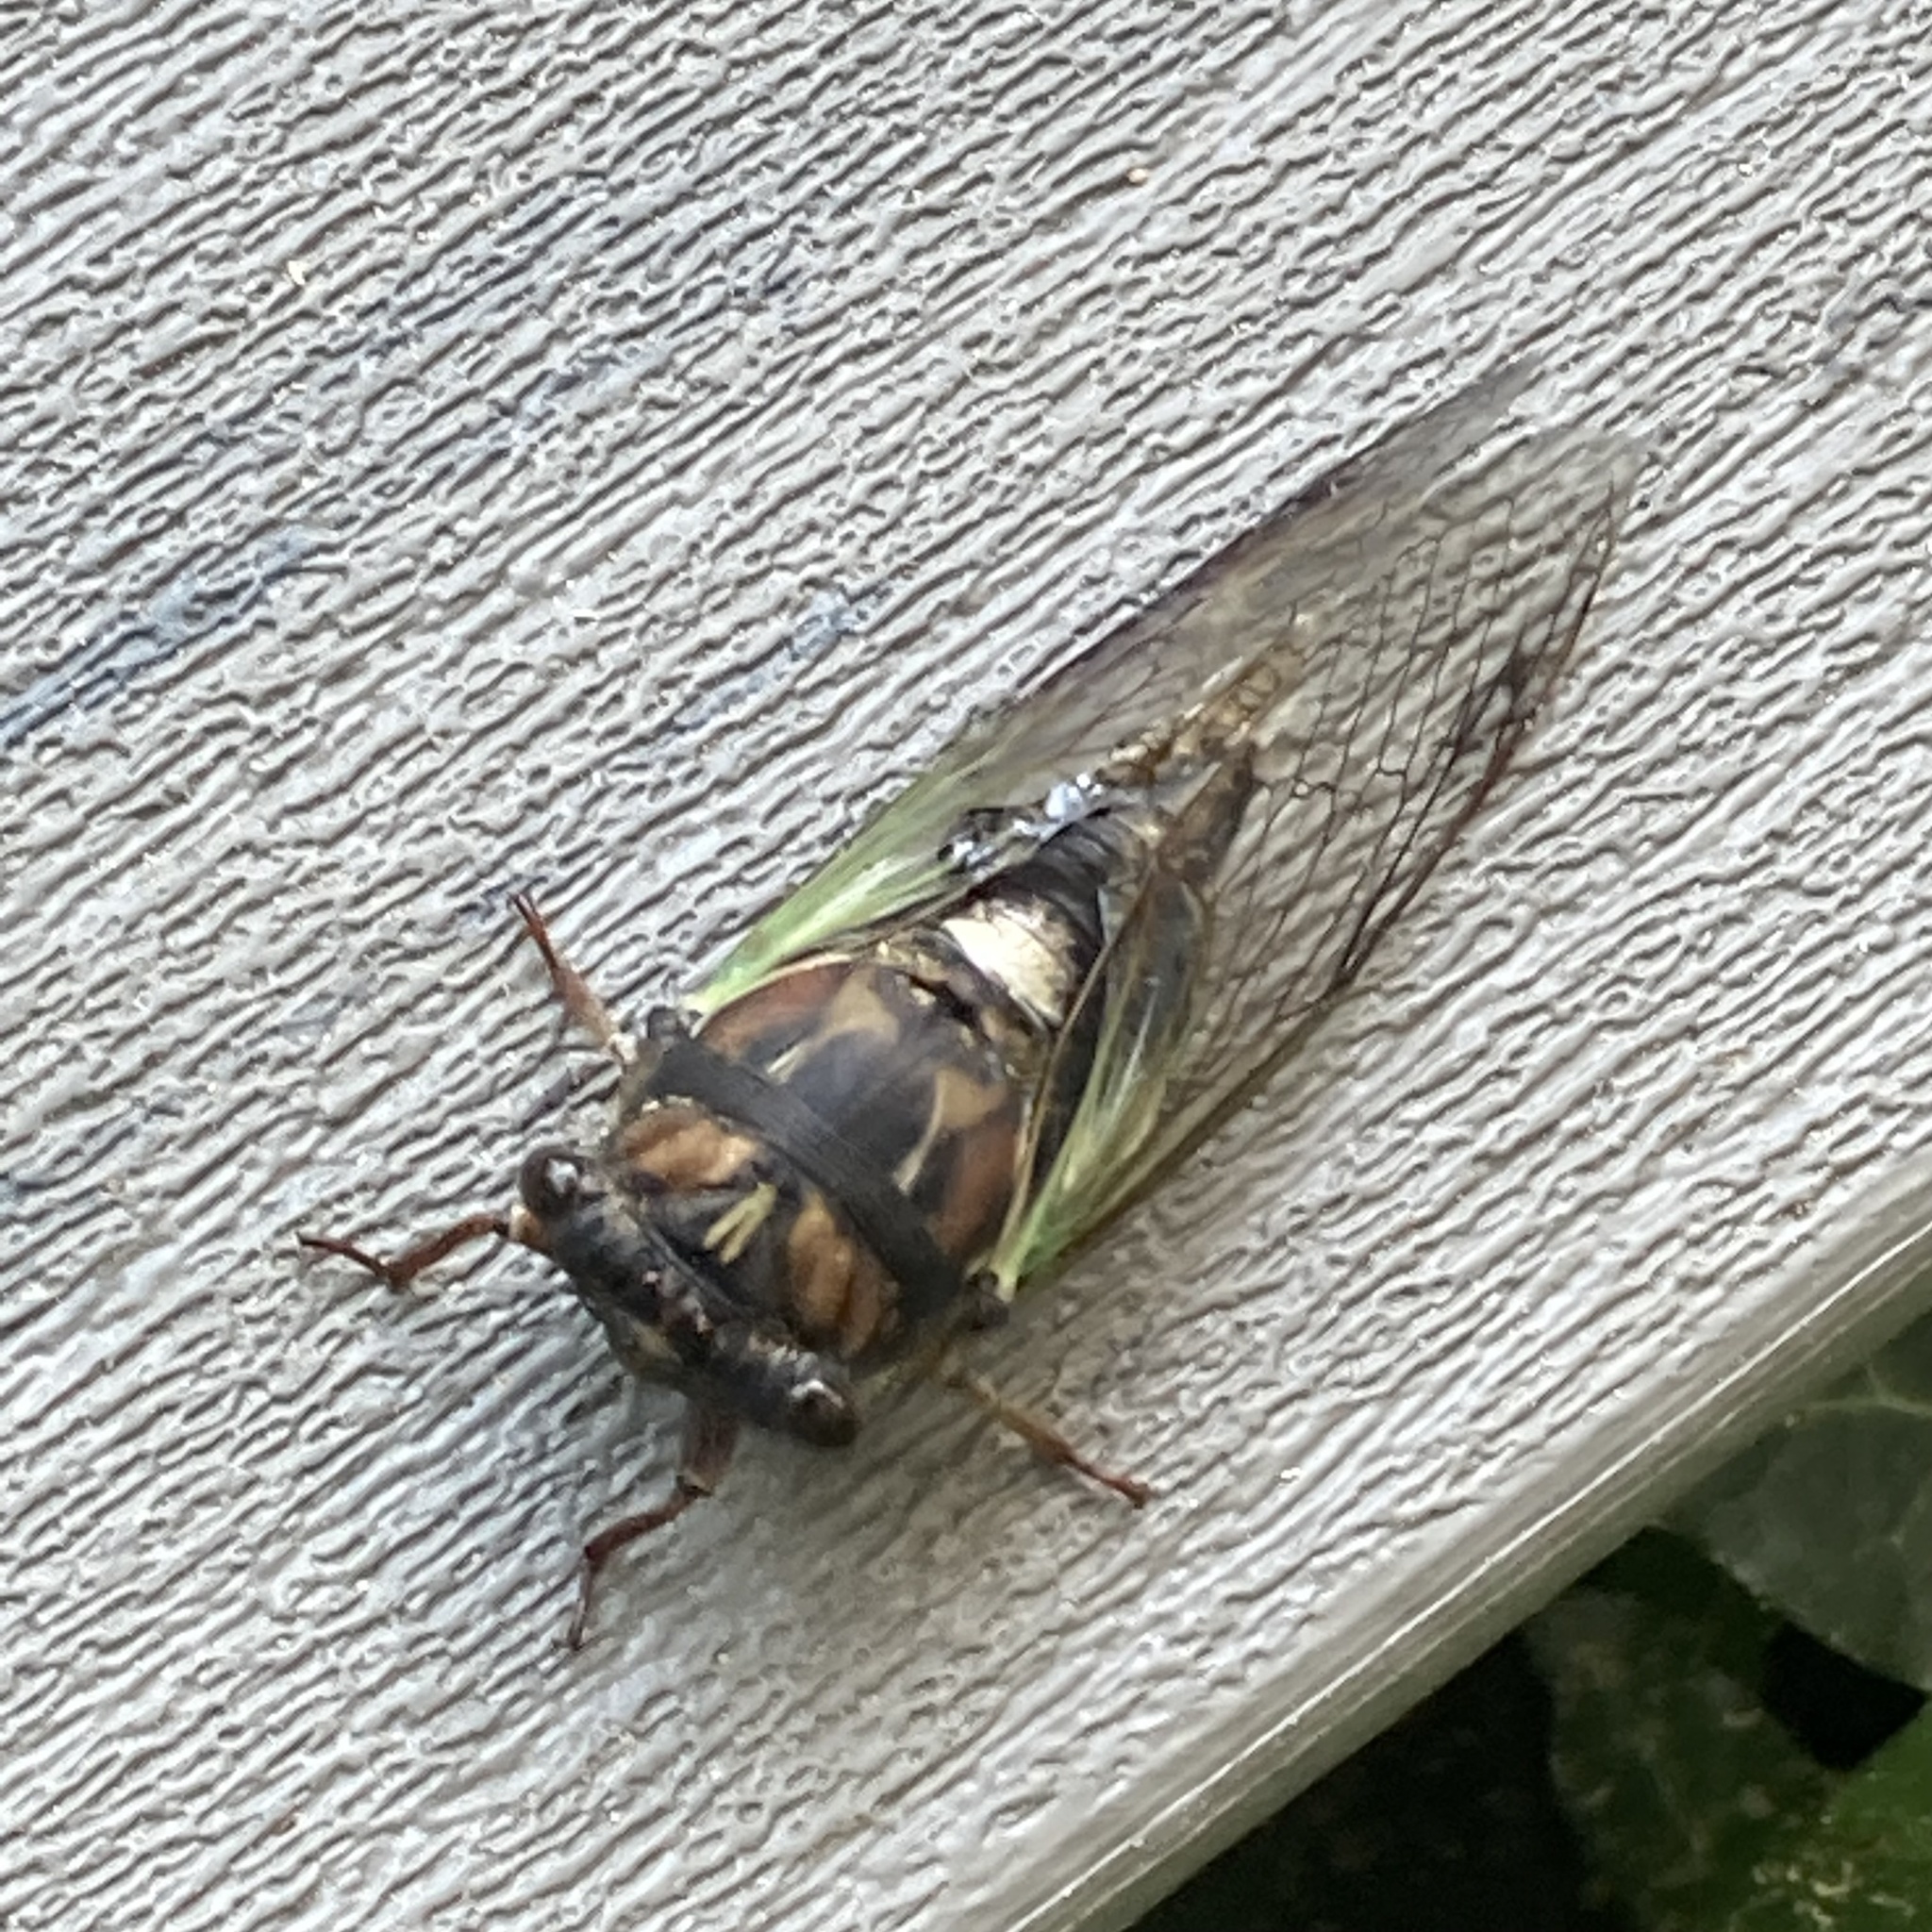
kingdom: Animalia
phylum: Arthropoda
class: Insecta
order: Hemiptera
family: Cicadidae
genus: Neotibicen
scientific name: Neotibicen lyricen
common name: Lyric cicada
